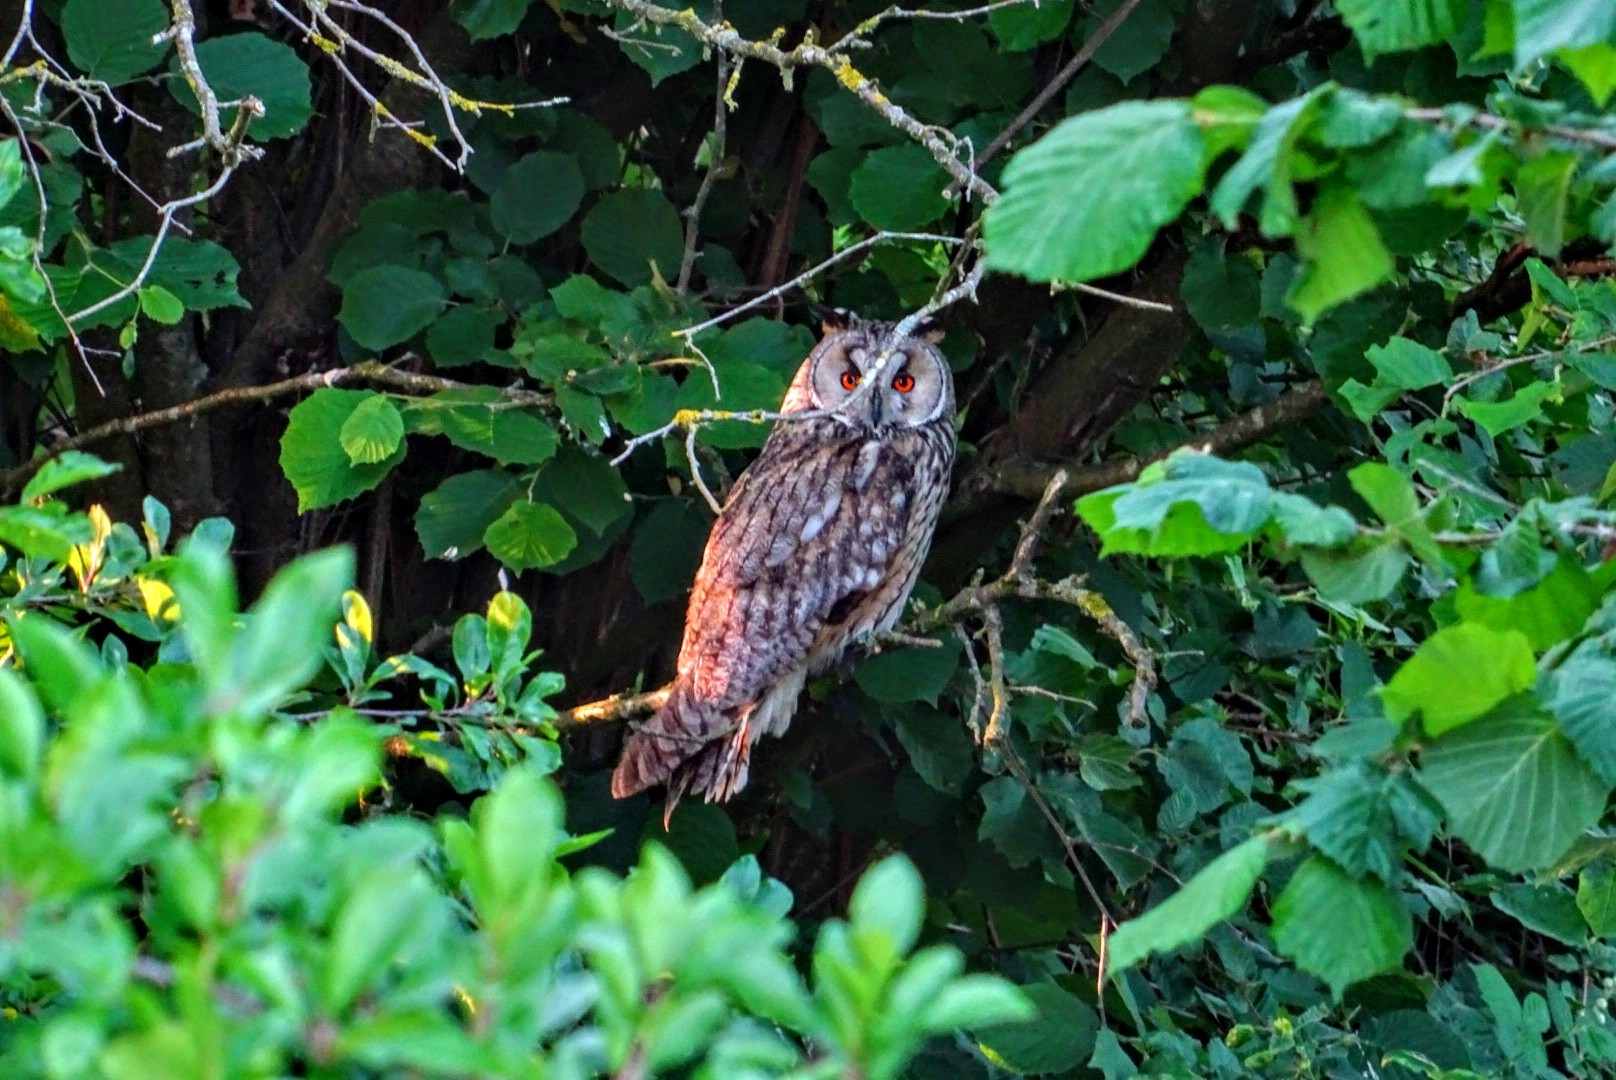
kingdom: Animalia
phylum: Chordata
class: Aves
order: Strigiformes
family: Strigidae
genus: Asio
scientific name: Asio otus
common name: Long-eared owl
